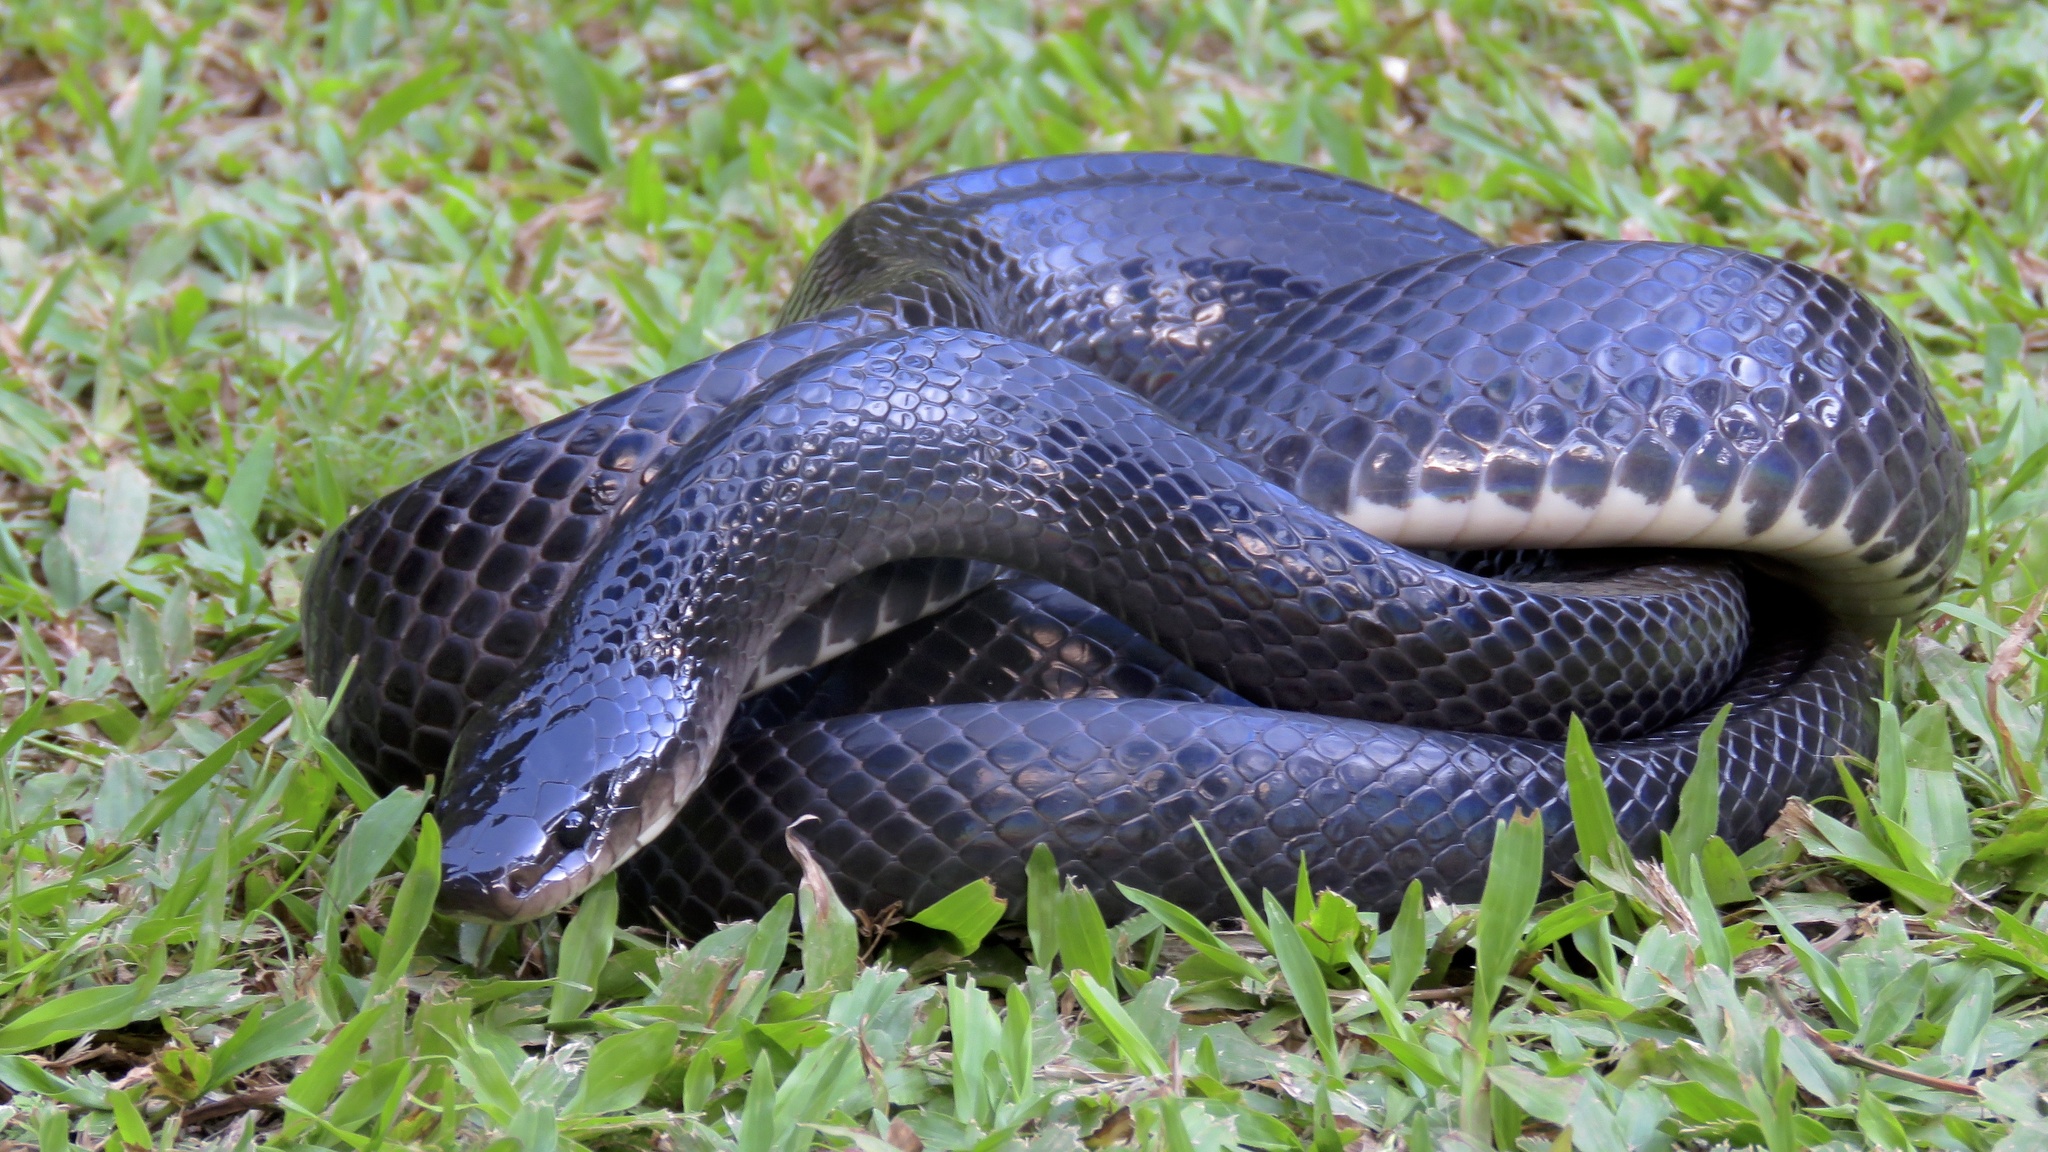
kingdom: Animalia
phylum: Chordata
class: Squamata
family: Colubridae
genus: Clelia
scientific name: Clelia clelia
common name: Mussurana
